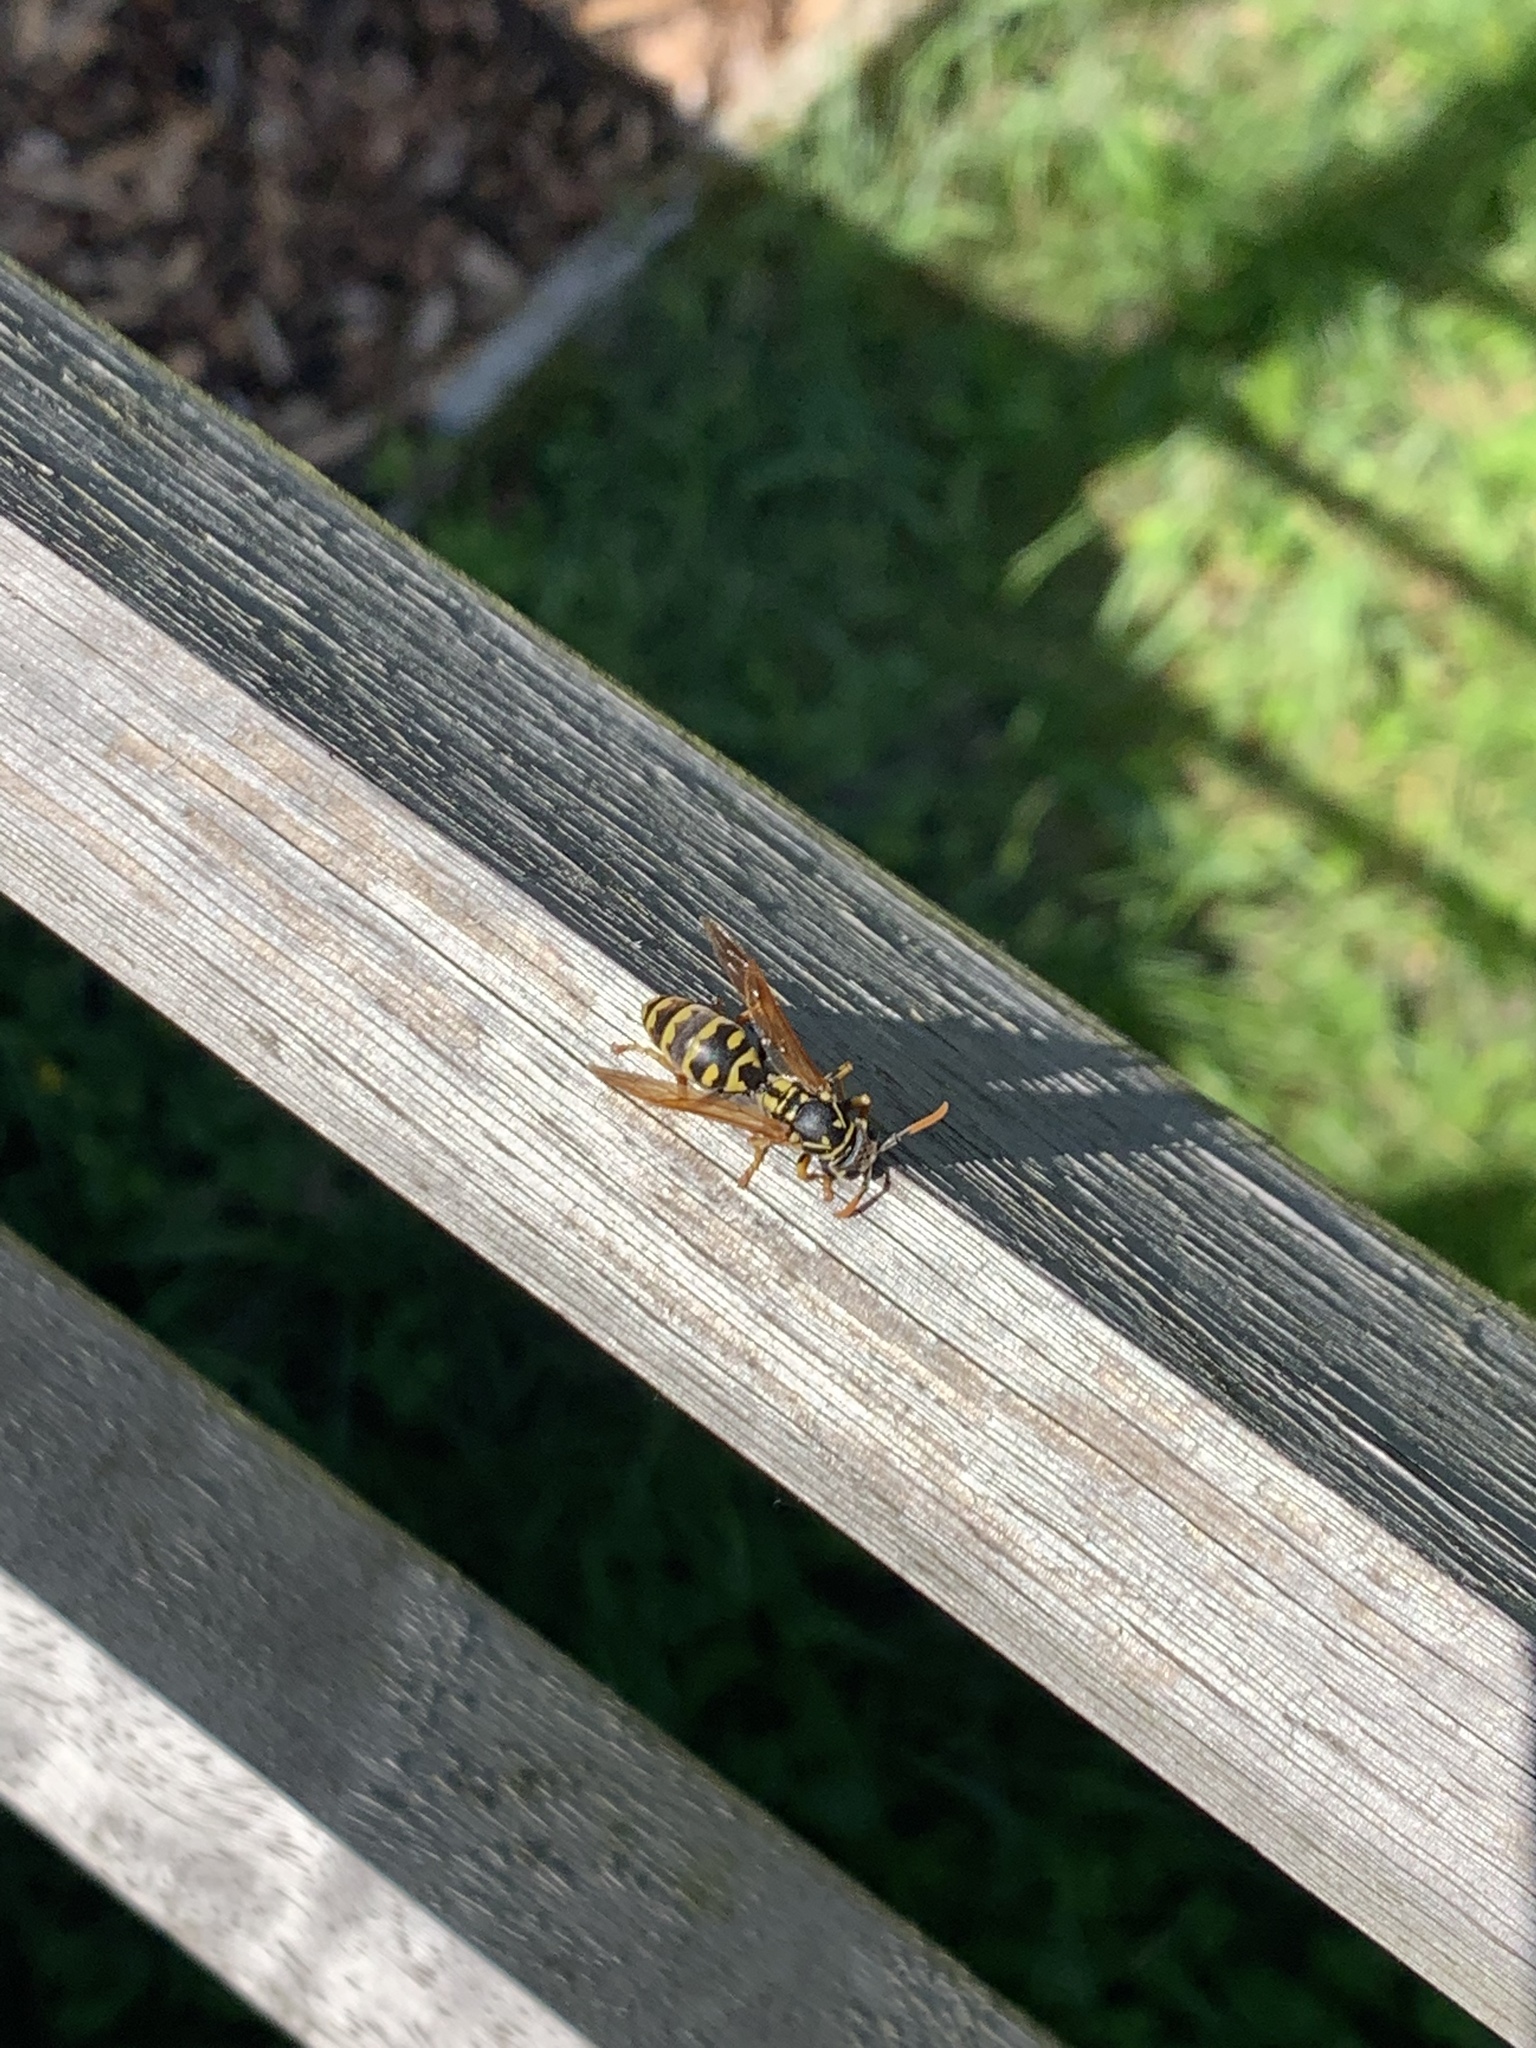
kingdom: Animalia
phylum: Arthropoda
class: Insecta
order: Hymenoptera
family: Eumenidae
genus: Polistes
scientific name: Polistes dominula
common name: Paper wasp
